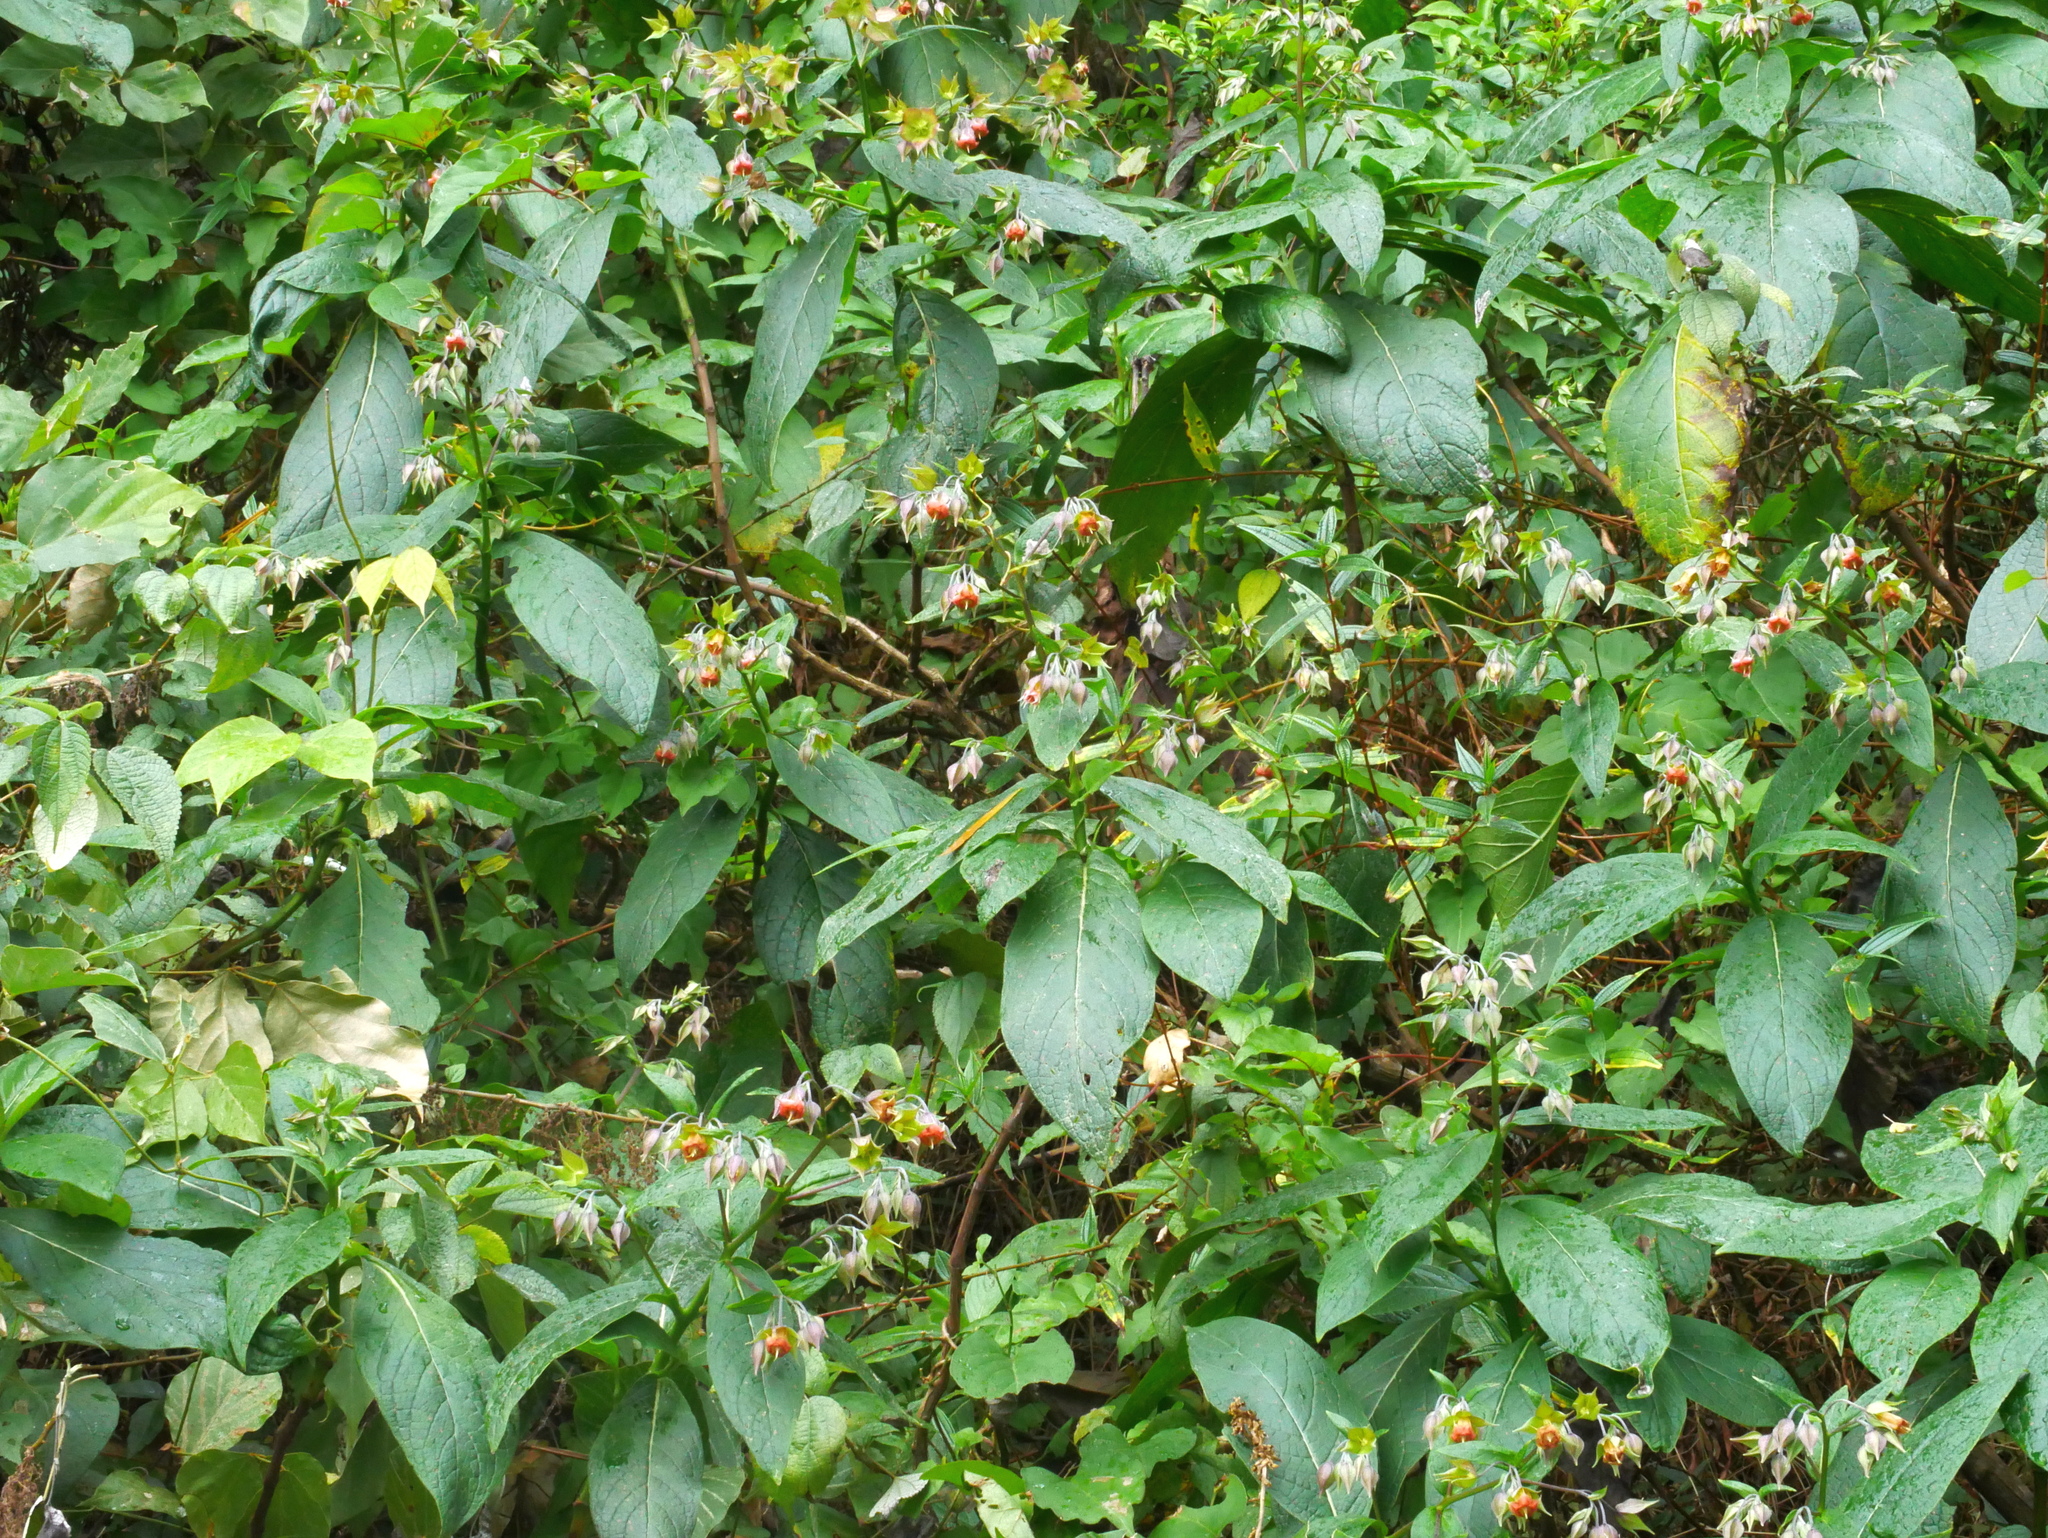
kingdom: Plantae
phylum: Tracheophyta
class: Magnoliopsida
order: Boraginales
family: Boraginaceae
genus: Trichodesma
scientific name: Trichodesma calycosum
